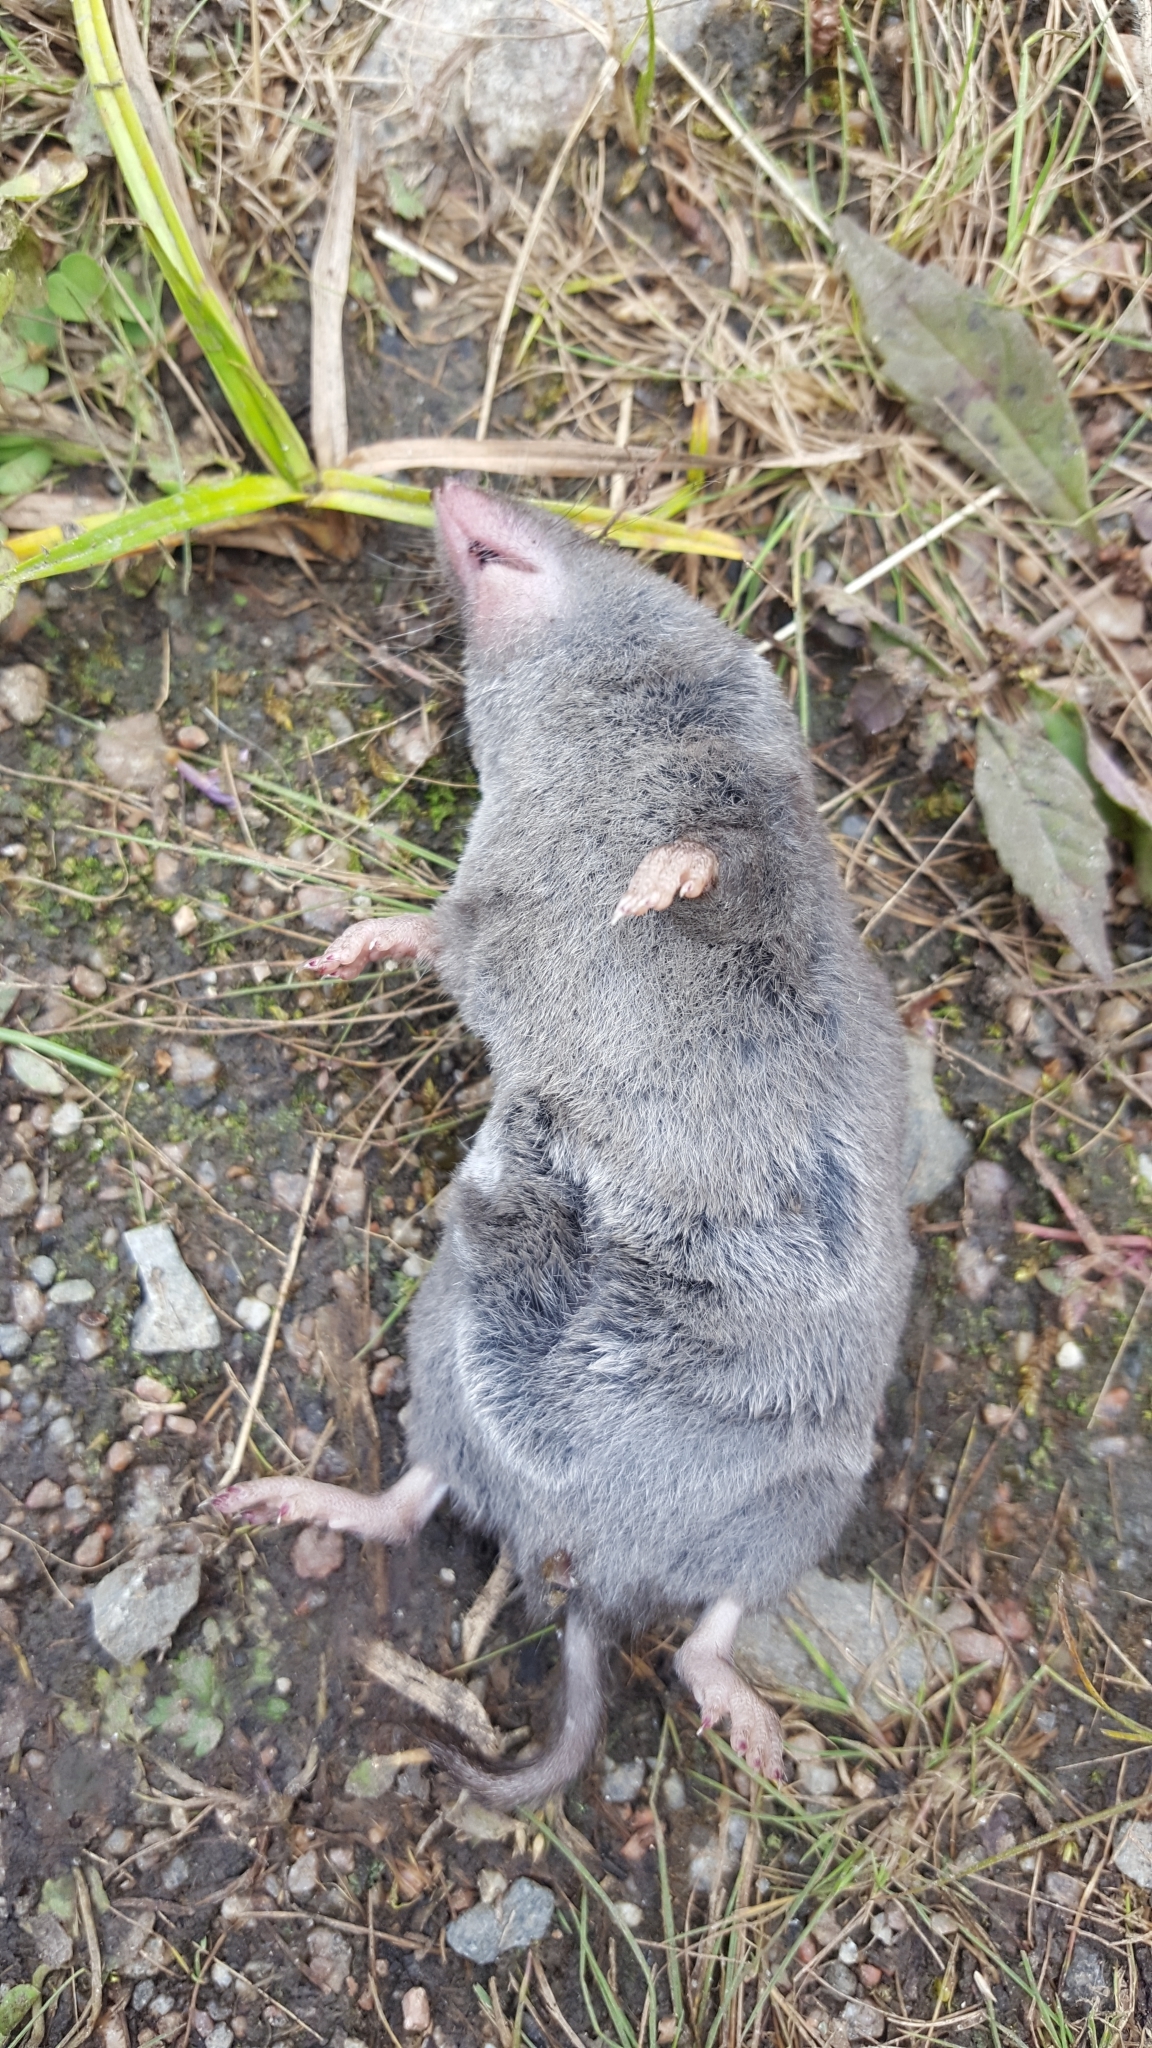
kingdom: Animalia
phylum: Chordata
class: Mammalia
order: Soricomorpha
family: Soricidae
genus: Blarina
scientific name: Blarina brevicauda
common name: Northern short-tailed shrew
